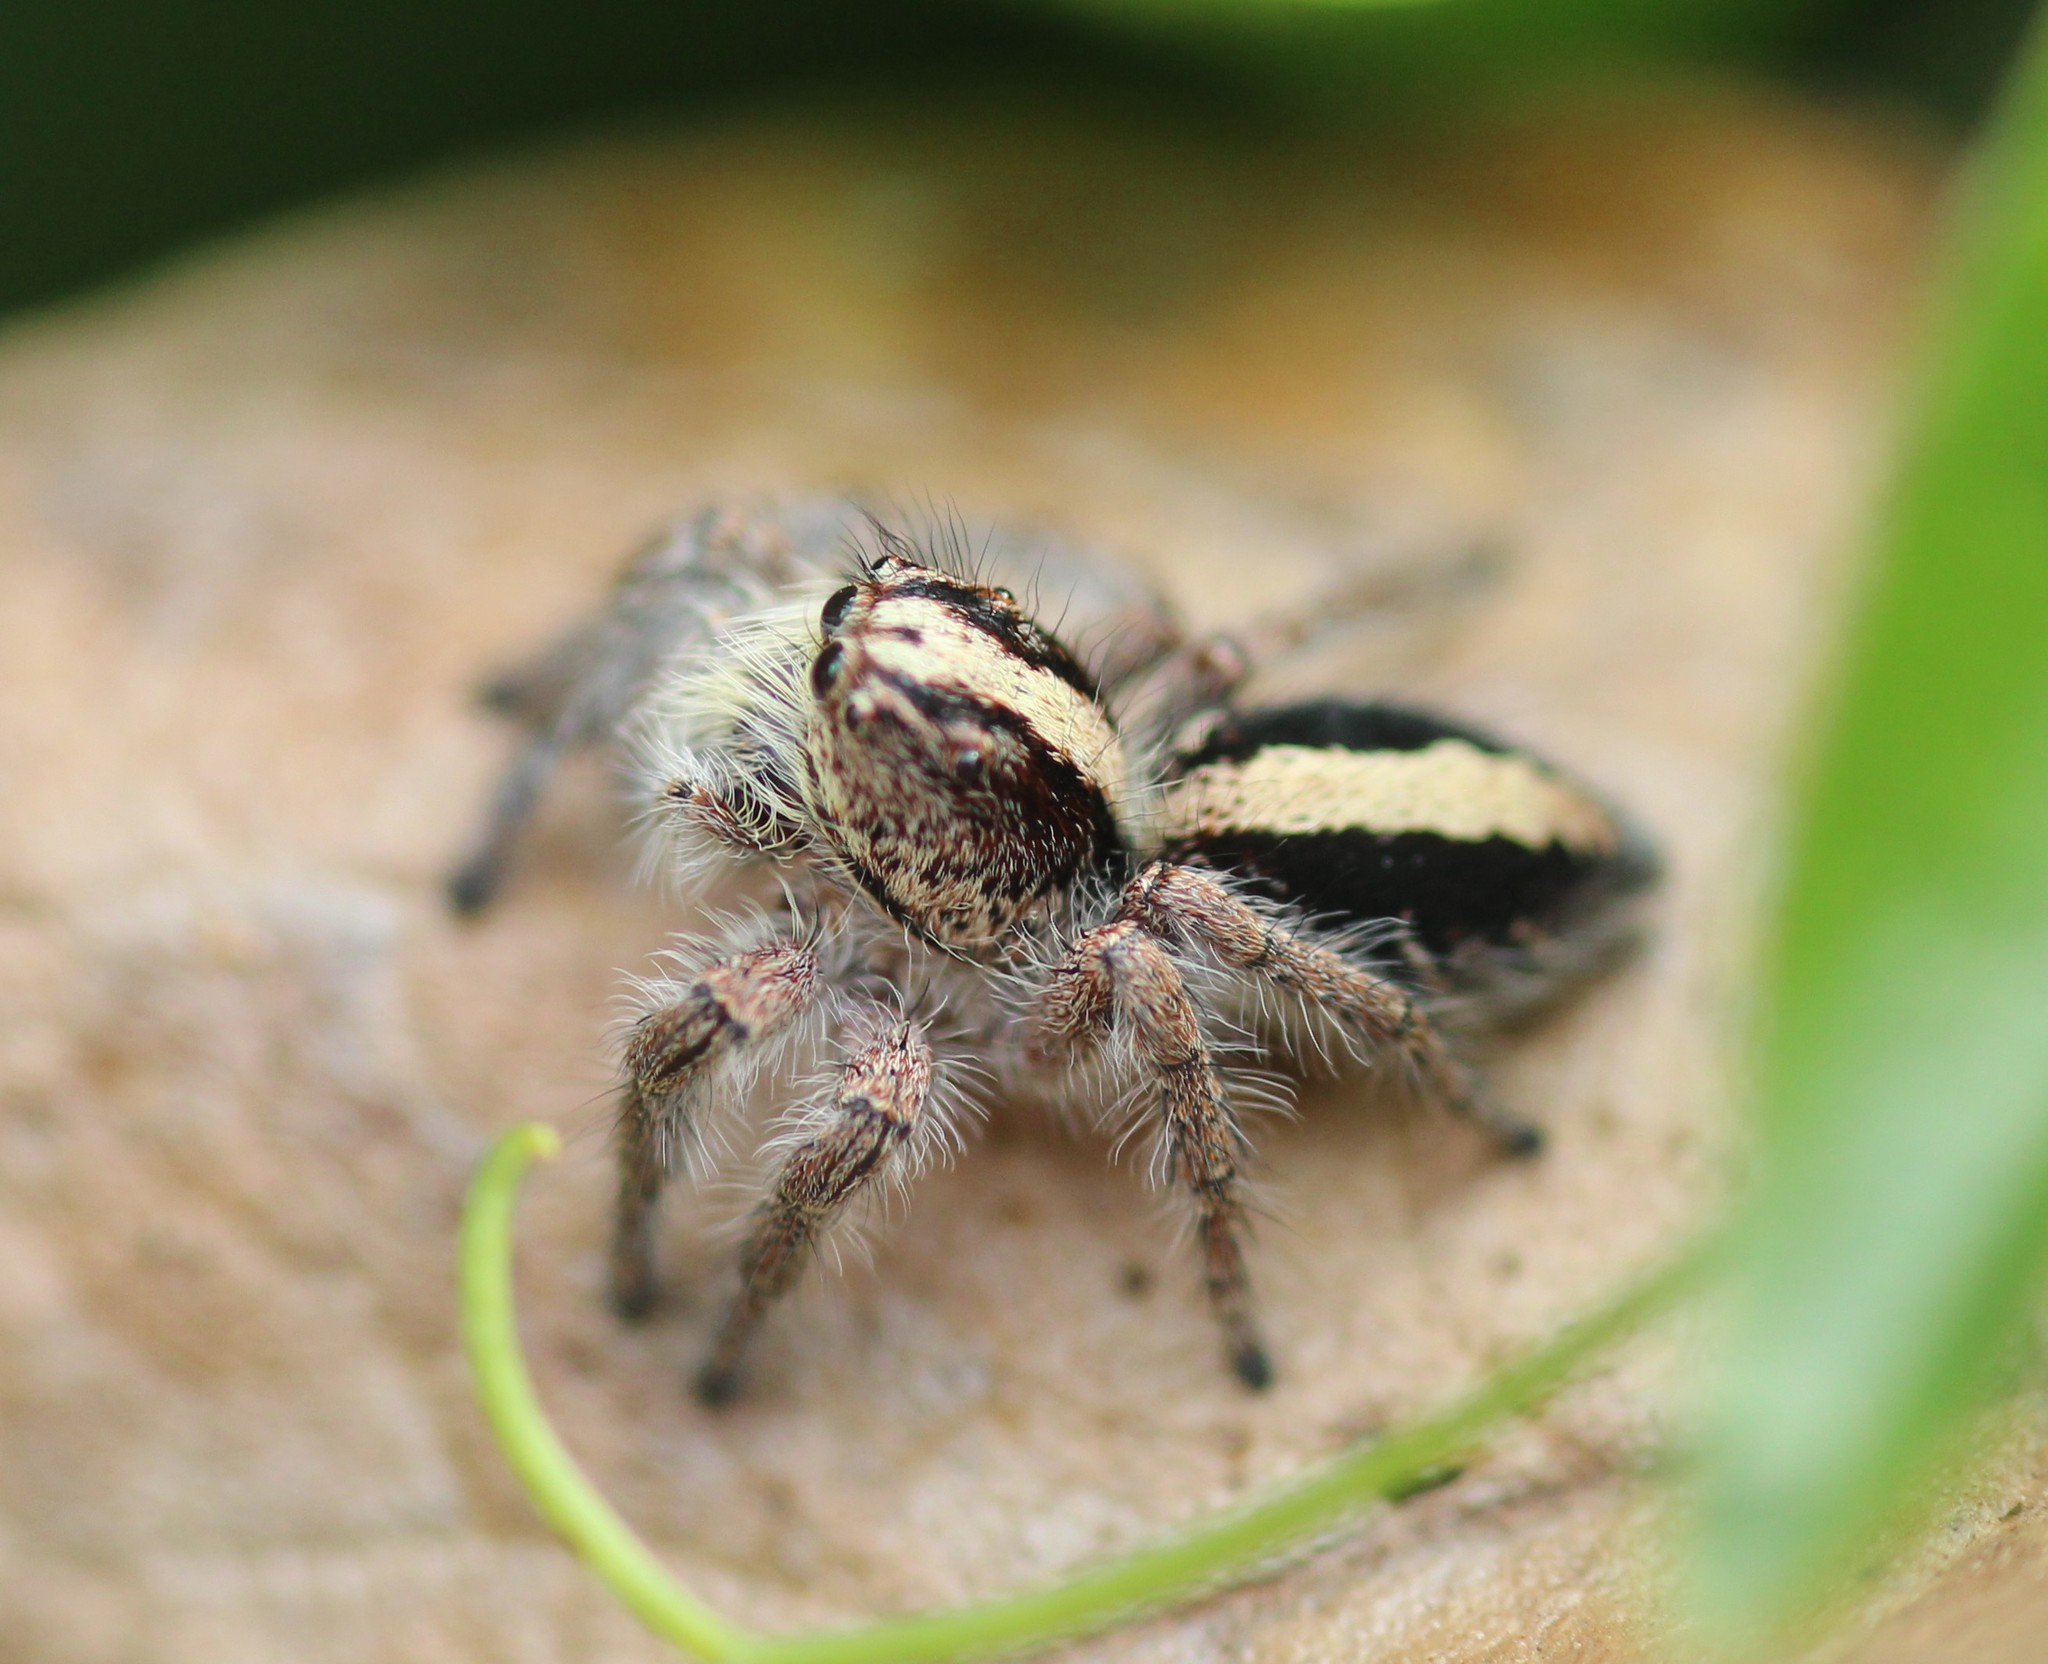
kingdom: Animalia
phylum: Arthropoda
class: Arachnida
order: Araneae
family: Salticidae
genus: Megafreya
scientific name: Megafreya sutrix
